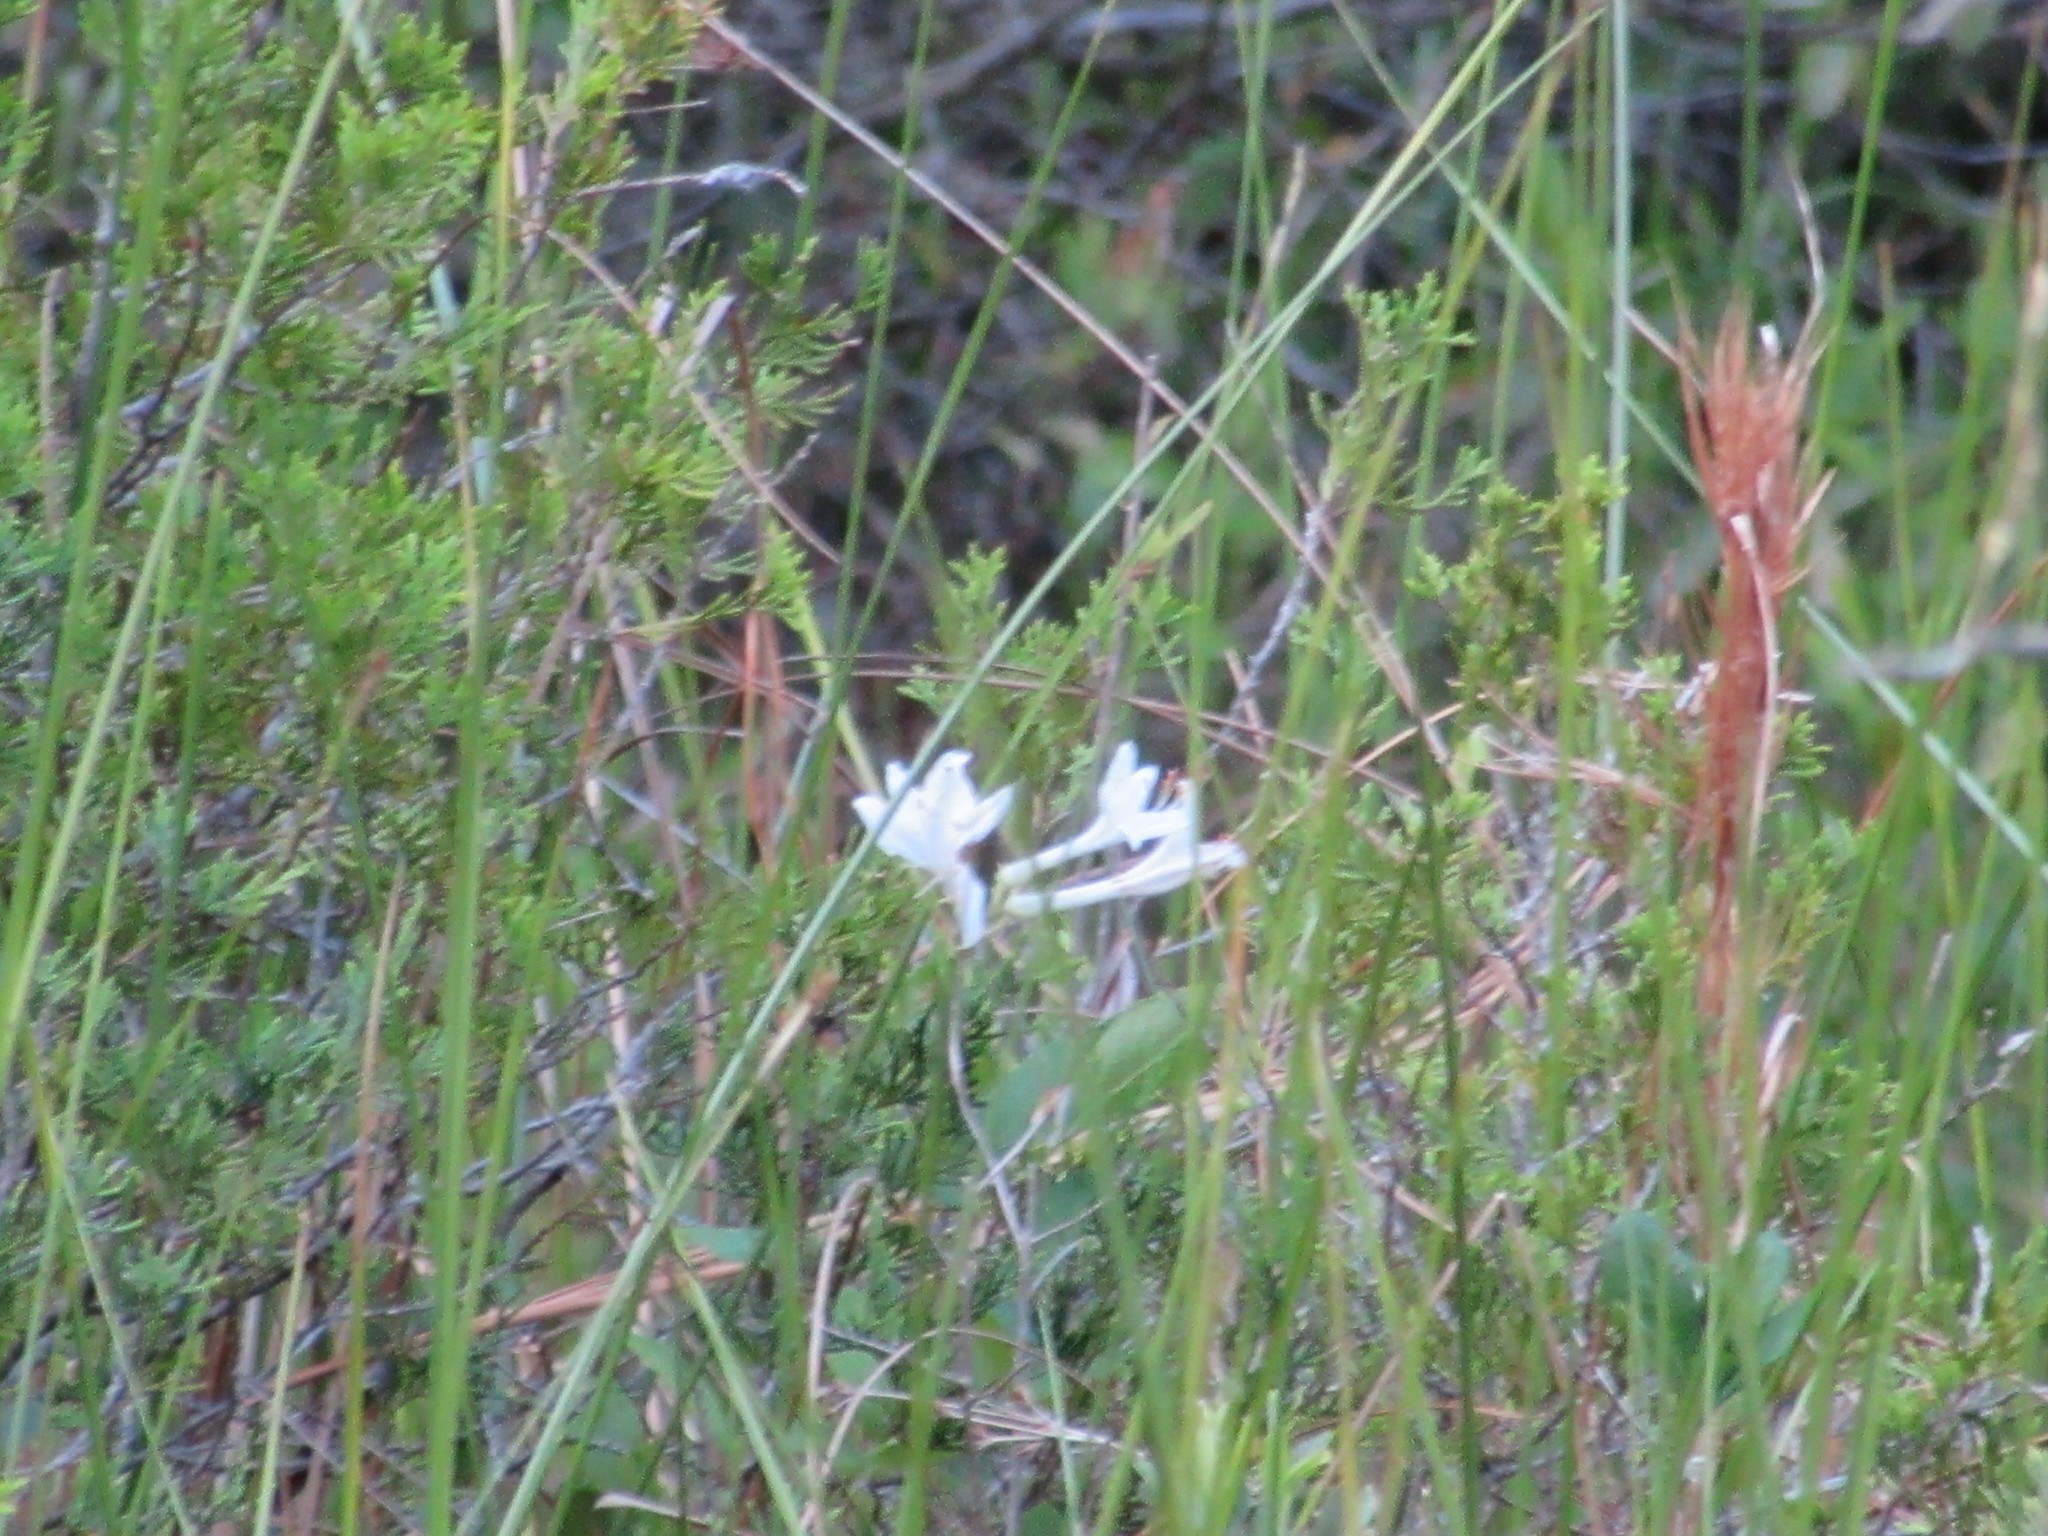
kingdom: Plantae
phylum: Tracheophyta
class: Magnoliopsida
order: Ericales
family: Ericaceae
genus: Rhododendron
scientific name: Rhododendron viscosum
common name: Clammy azalea
